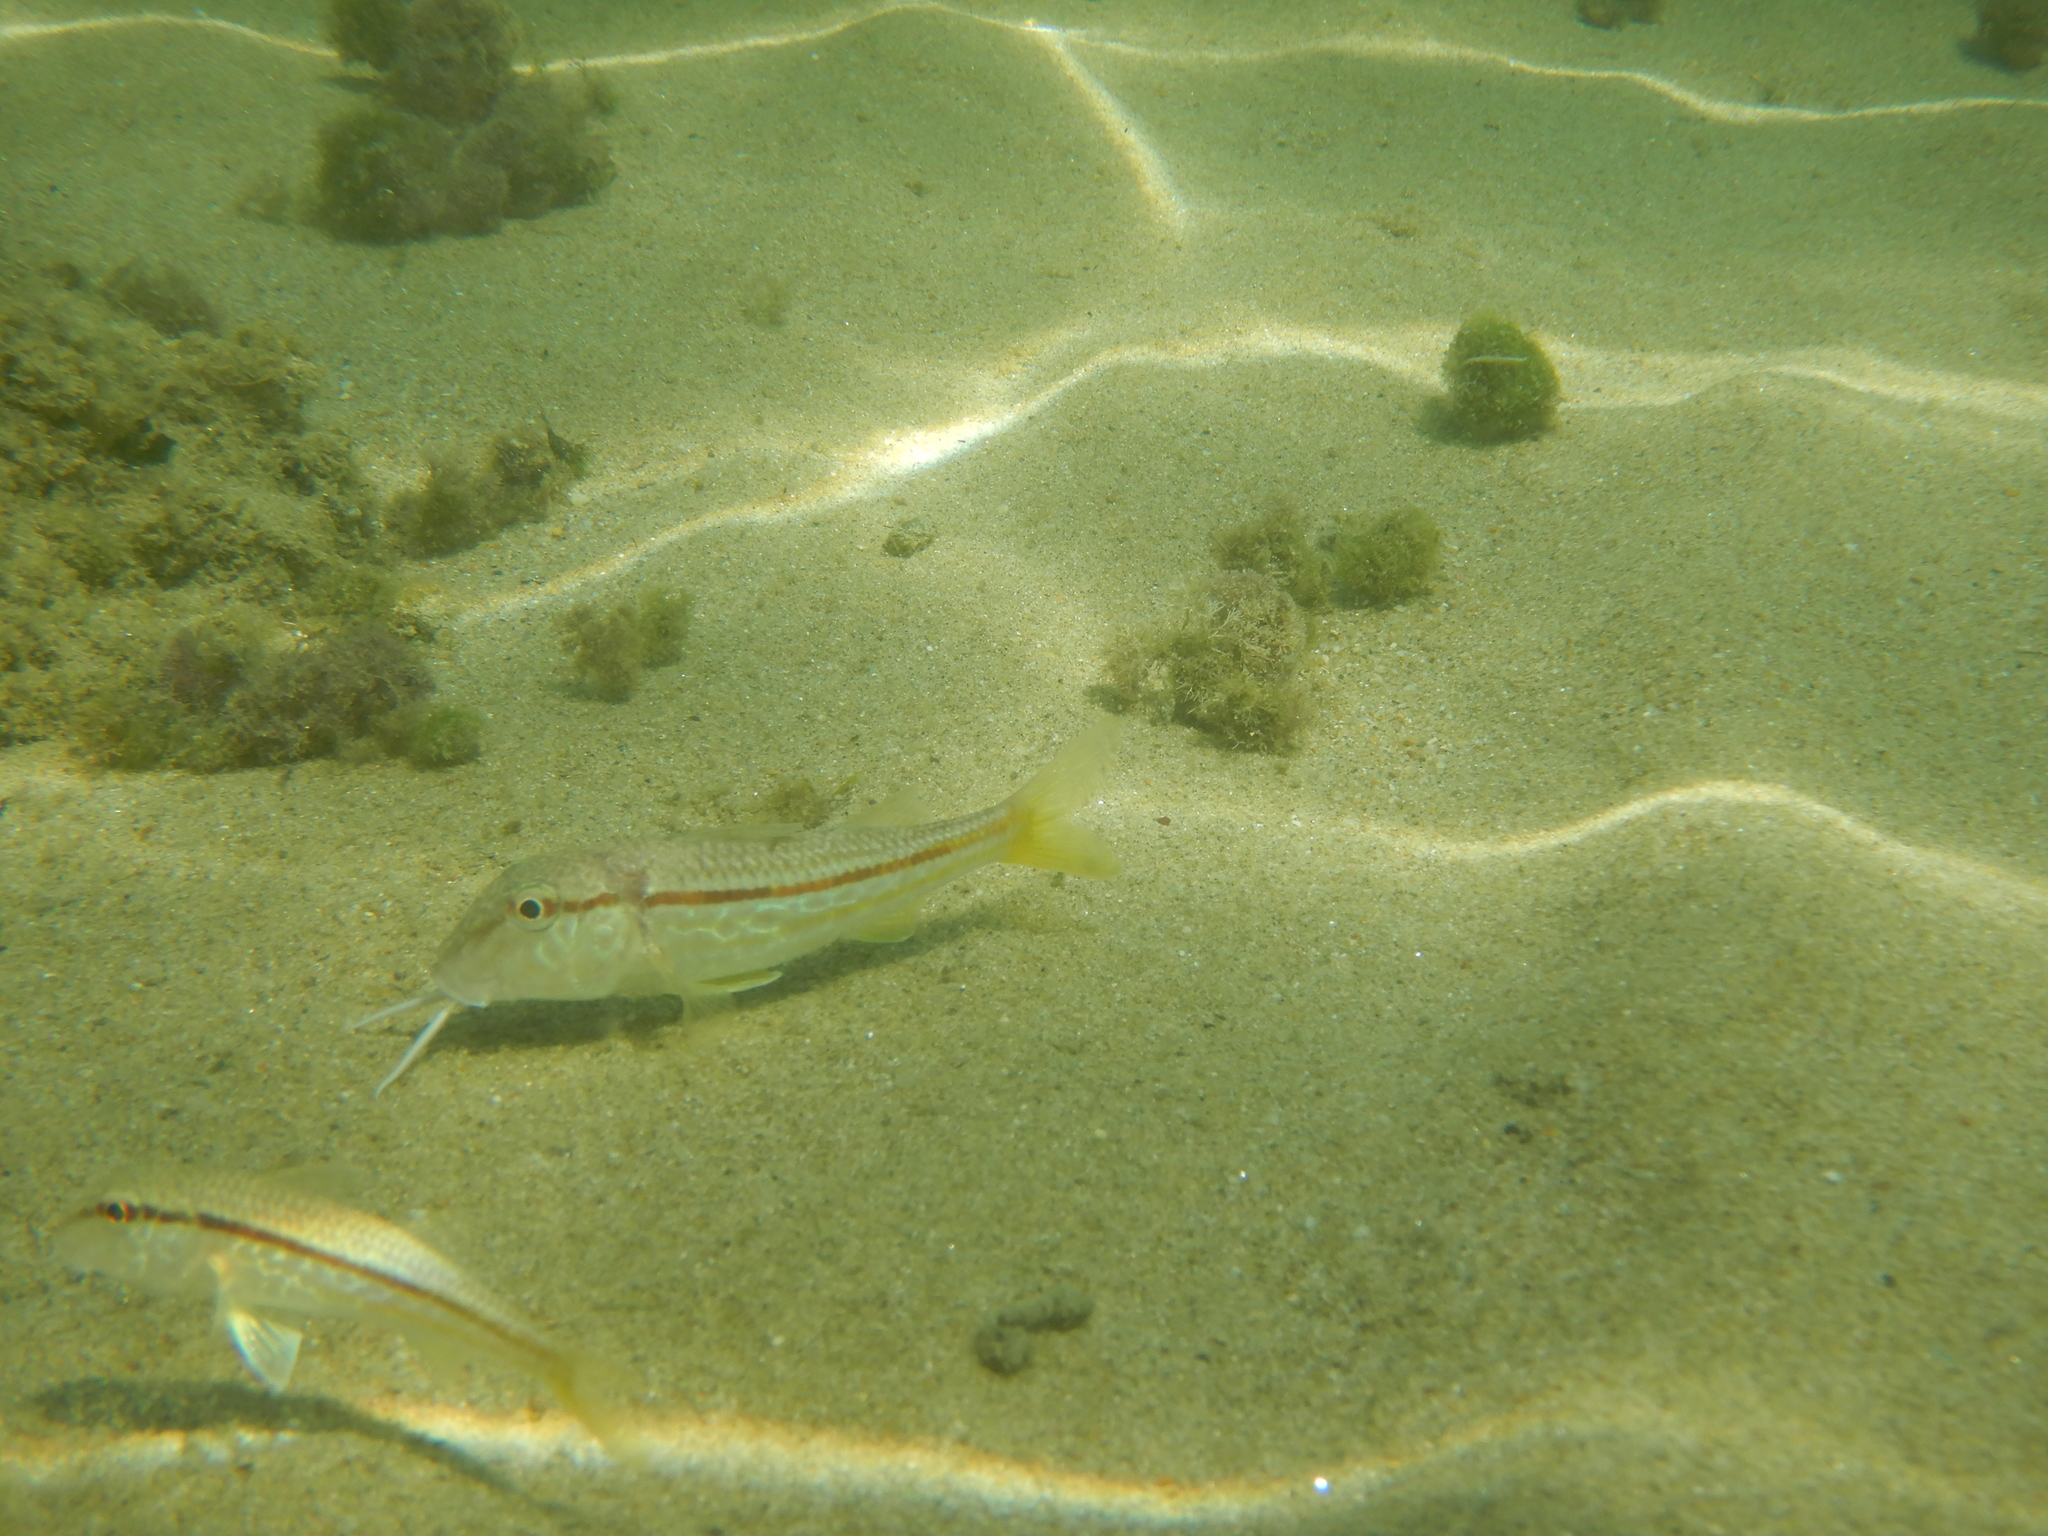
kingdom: Animalia
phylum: Chordata
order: Perciformes
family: Mullidae
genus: Mullus
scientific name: Mullus barbatus
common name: Blunt-snouted mullet
